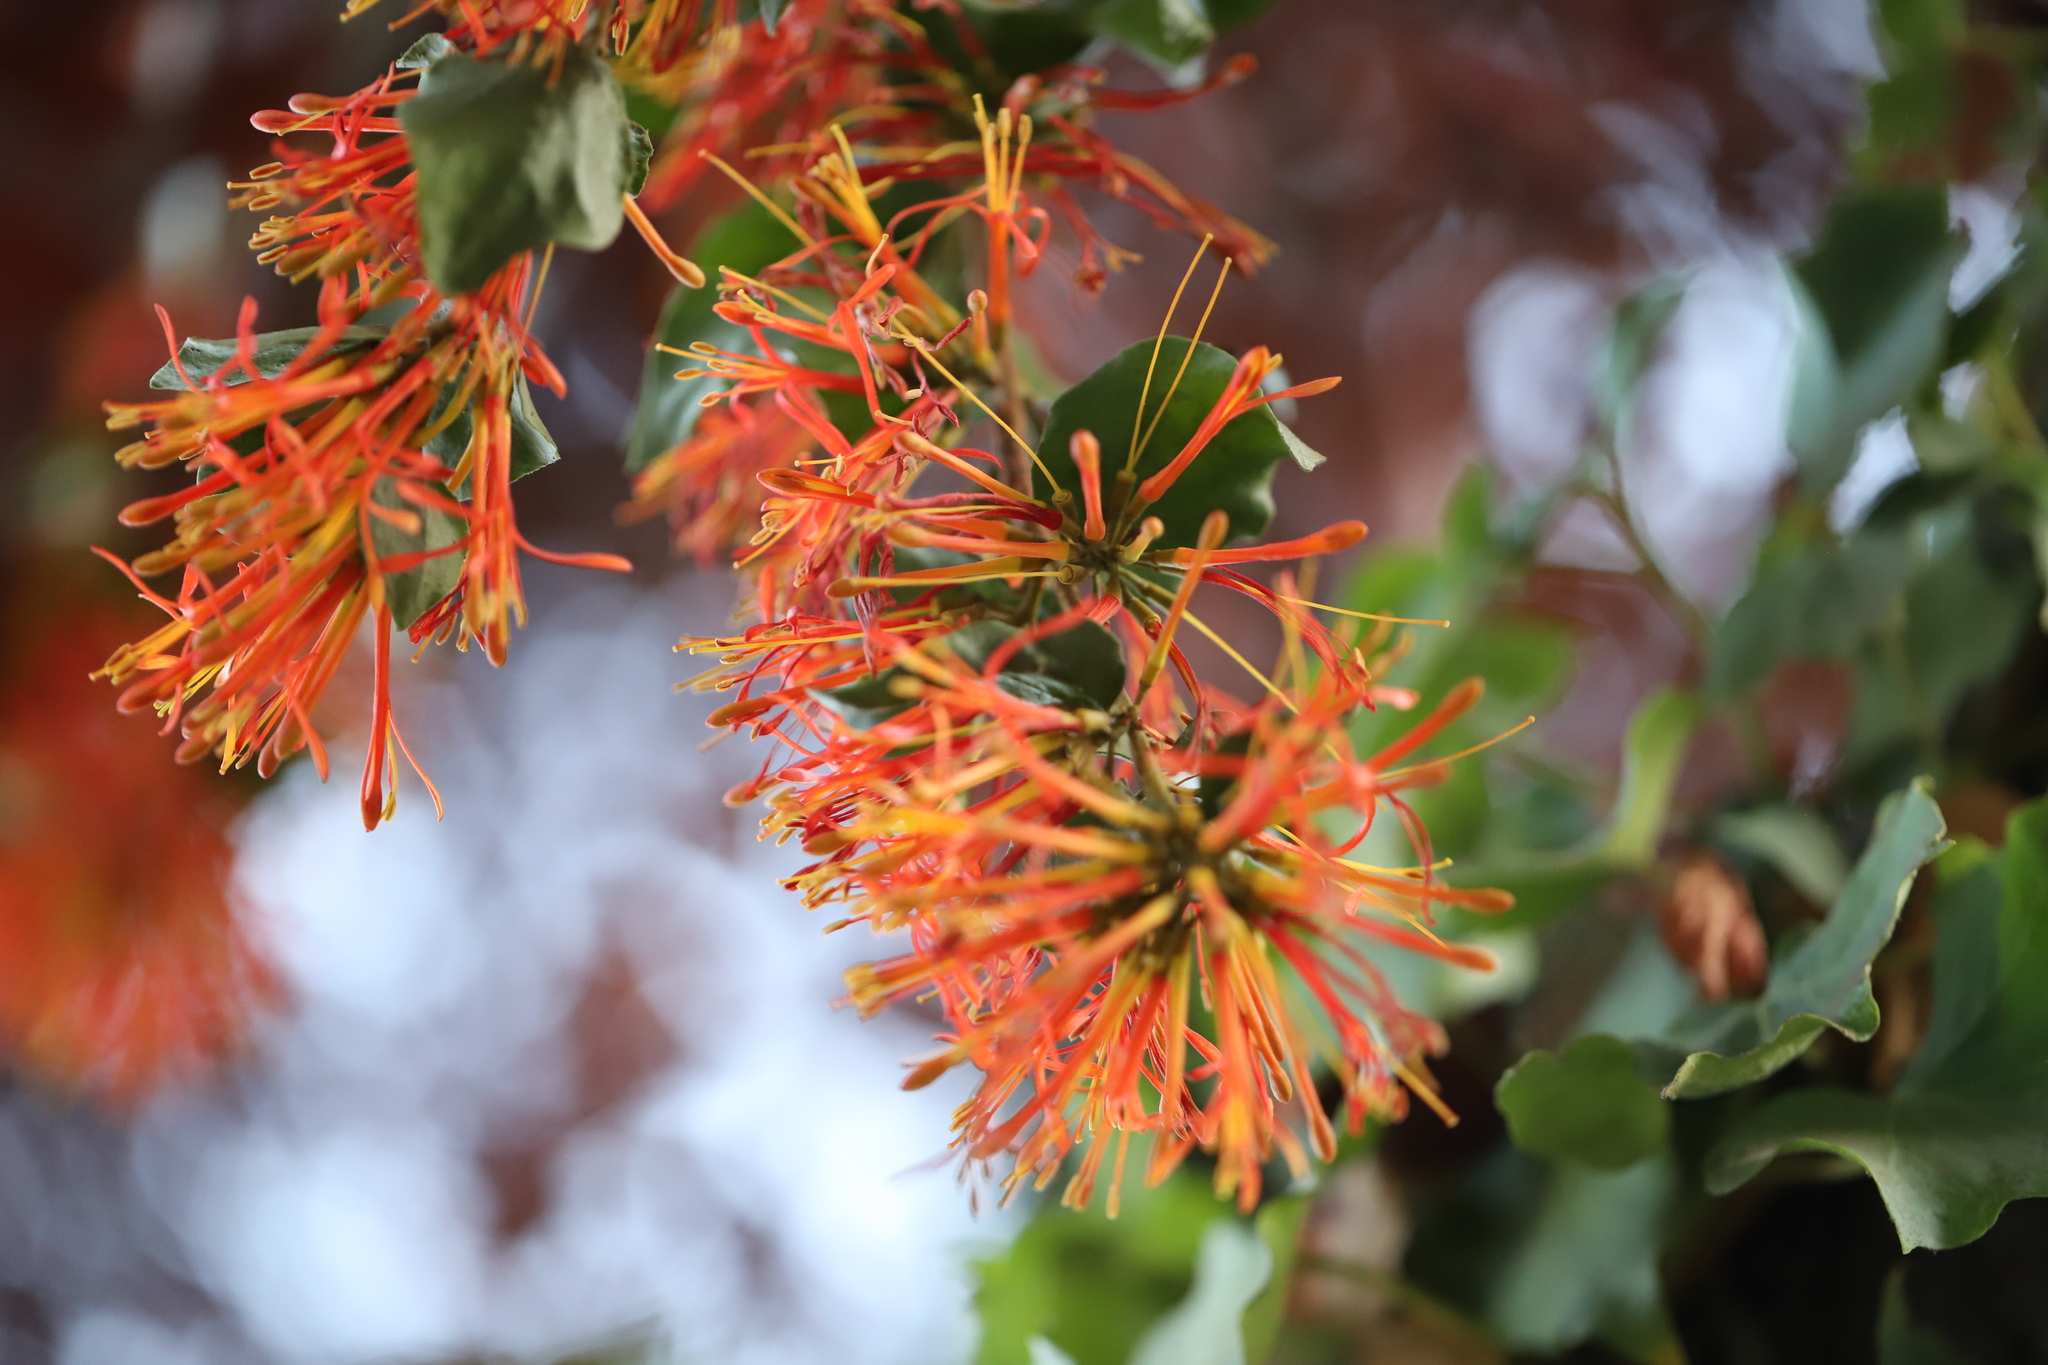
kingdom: Plantae
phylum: Tracheophyta
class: Magnoliopsida
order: Santalales
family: Loranthaceae
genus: Tristerix
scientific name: Tristerix corymbosus
